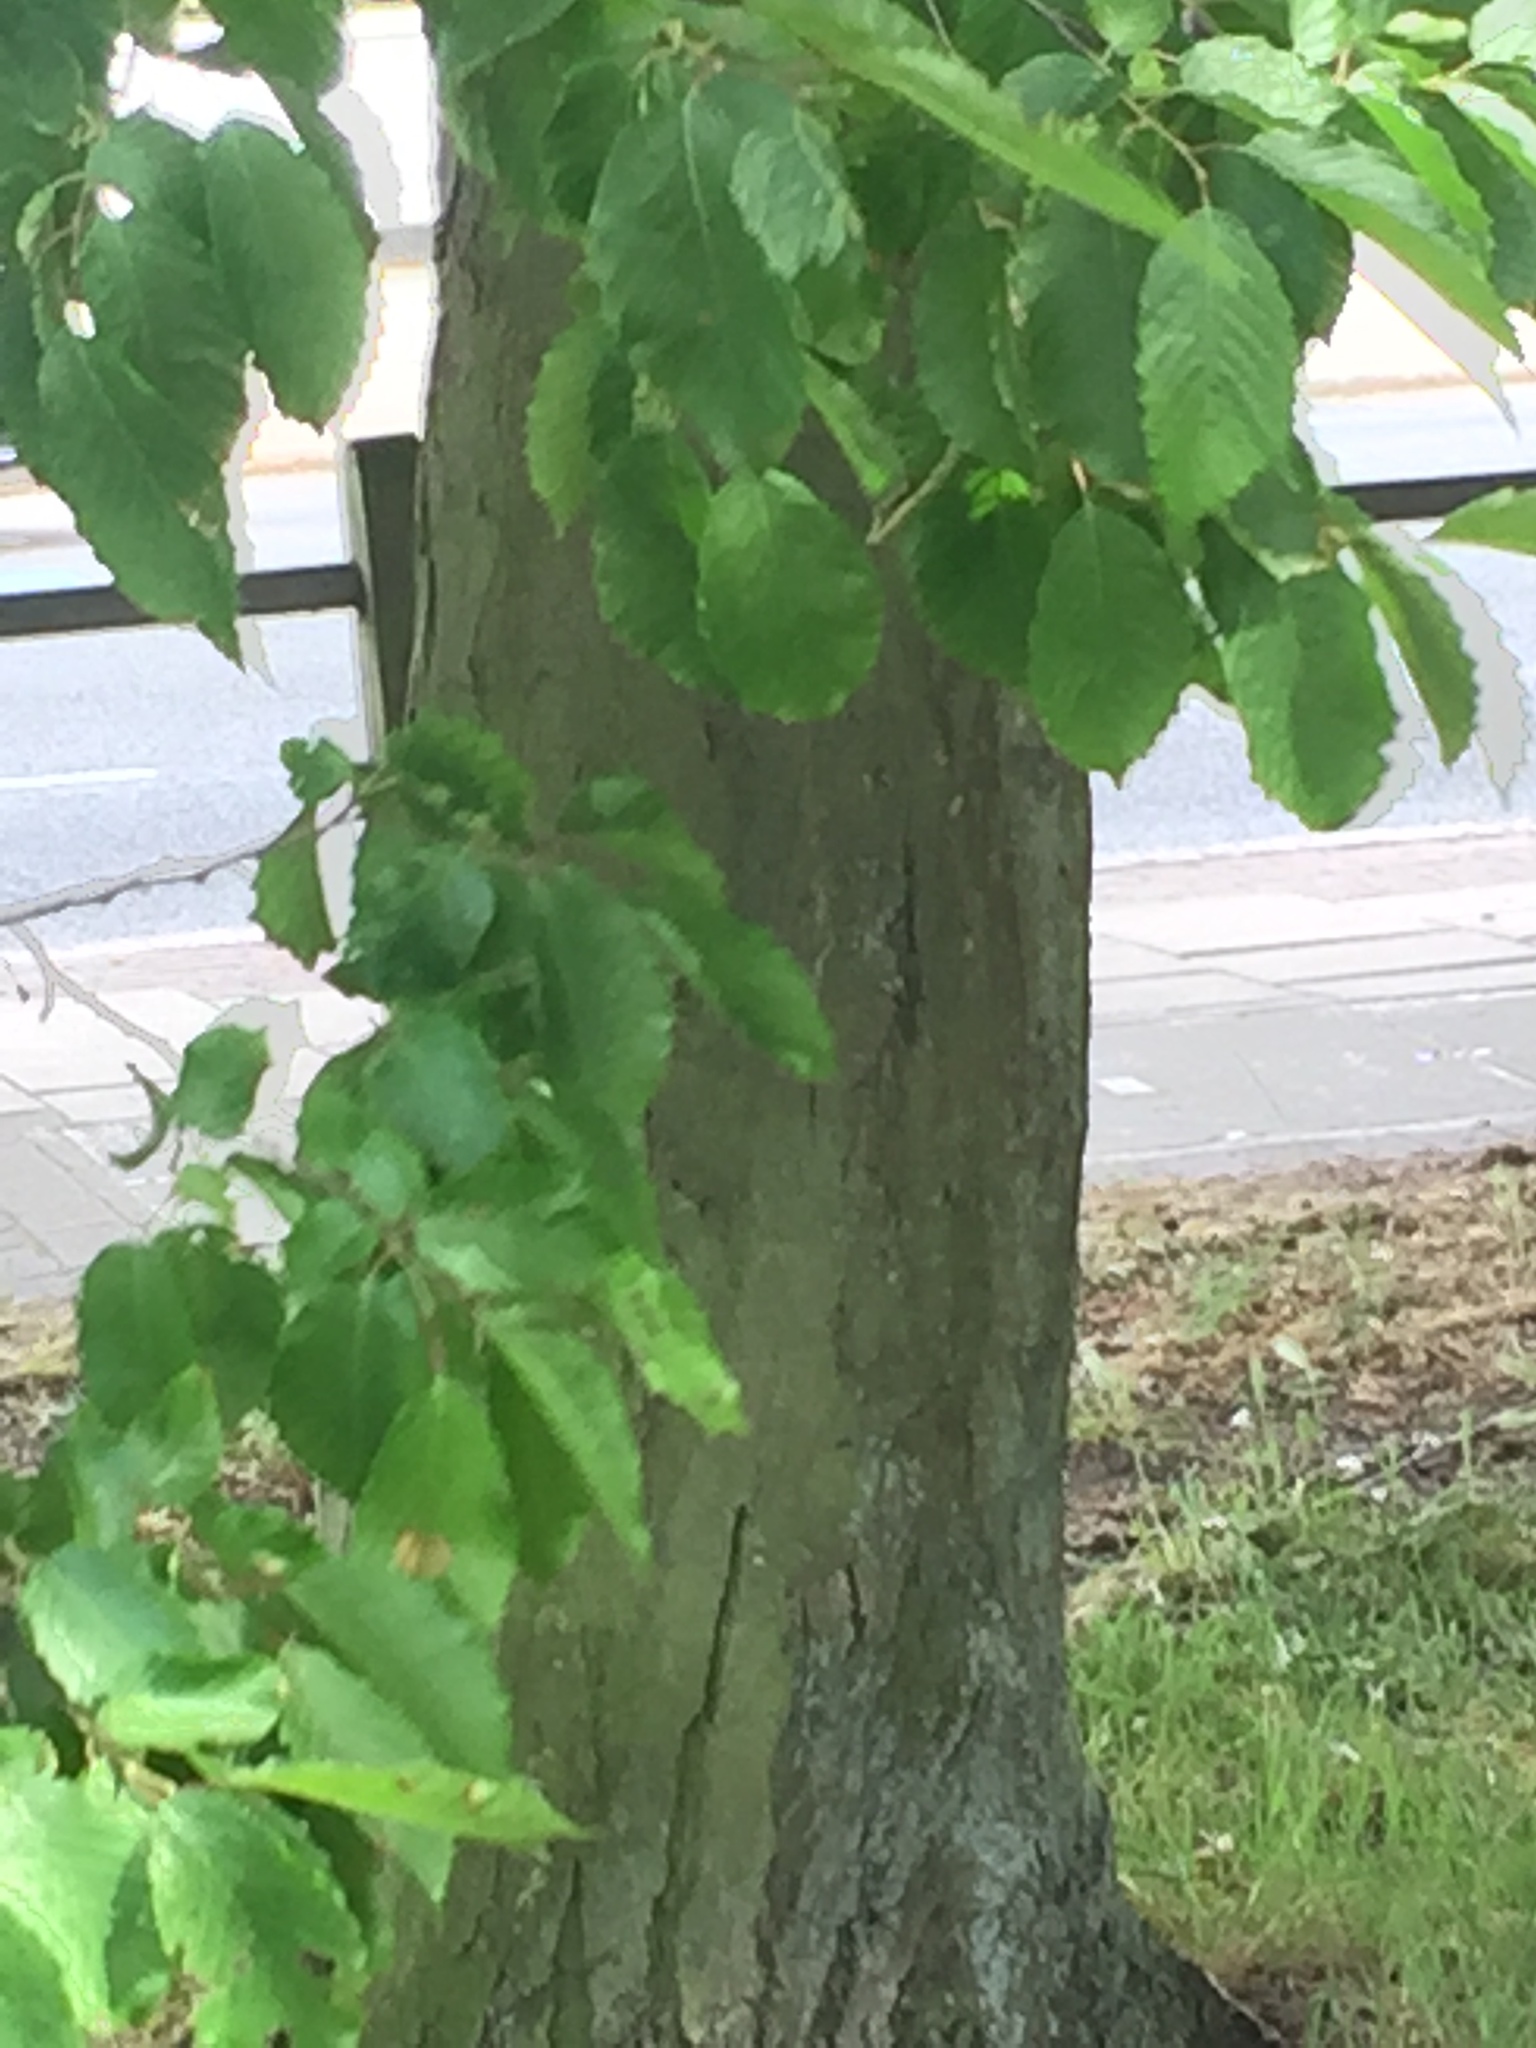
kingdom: Plantae
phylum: Tracheophyta
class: Magnoliopsida
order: Fagales
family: Betulaceae
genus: Carpinus
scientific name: Carpinus betulus
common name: Hornbeam
